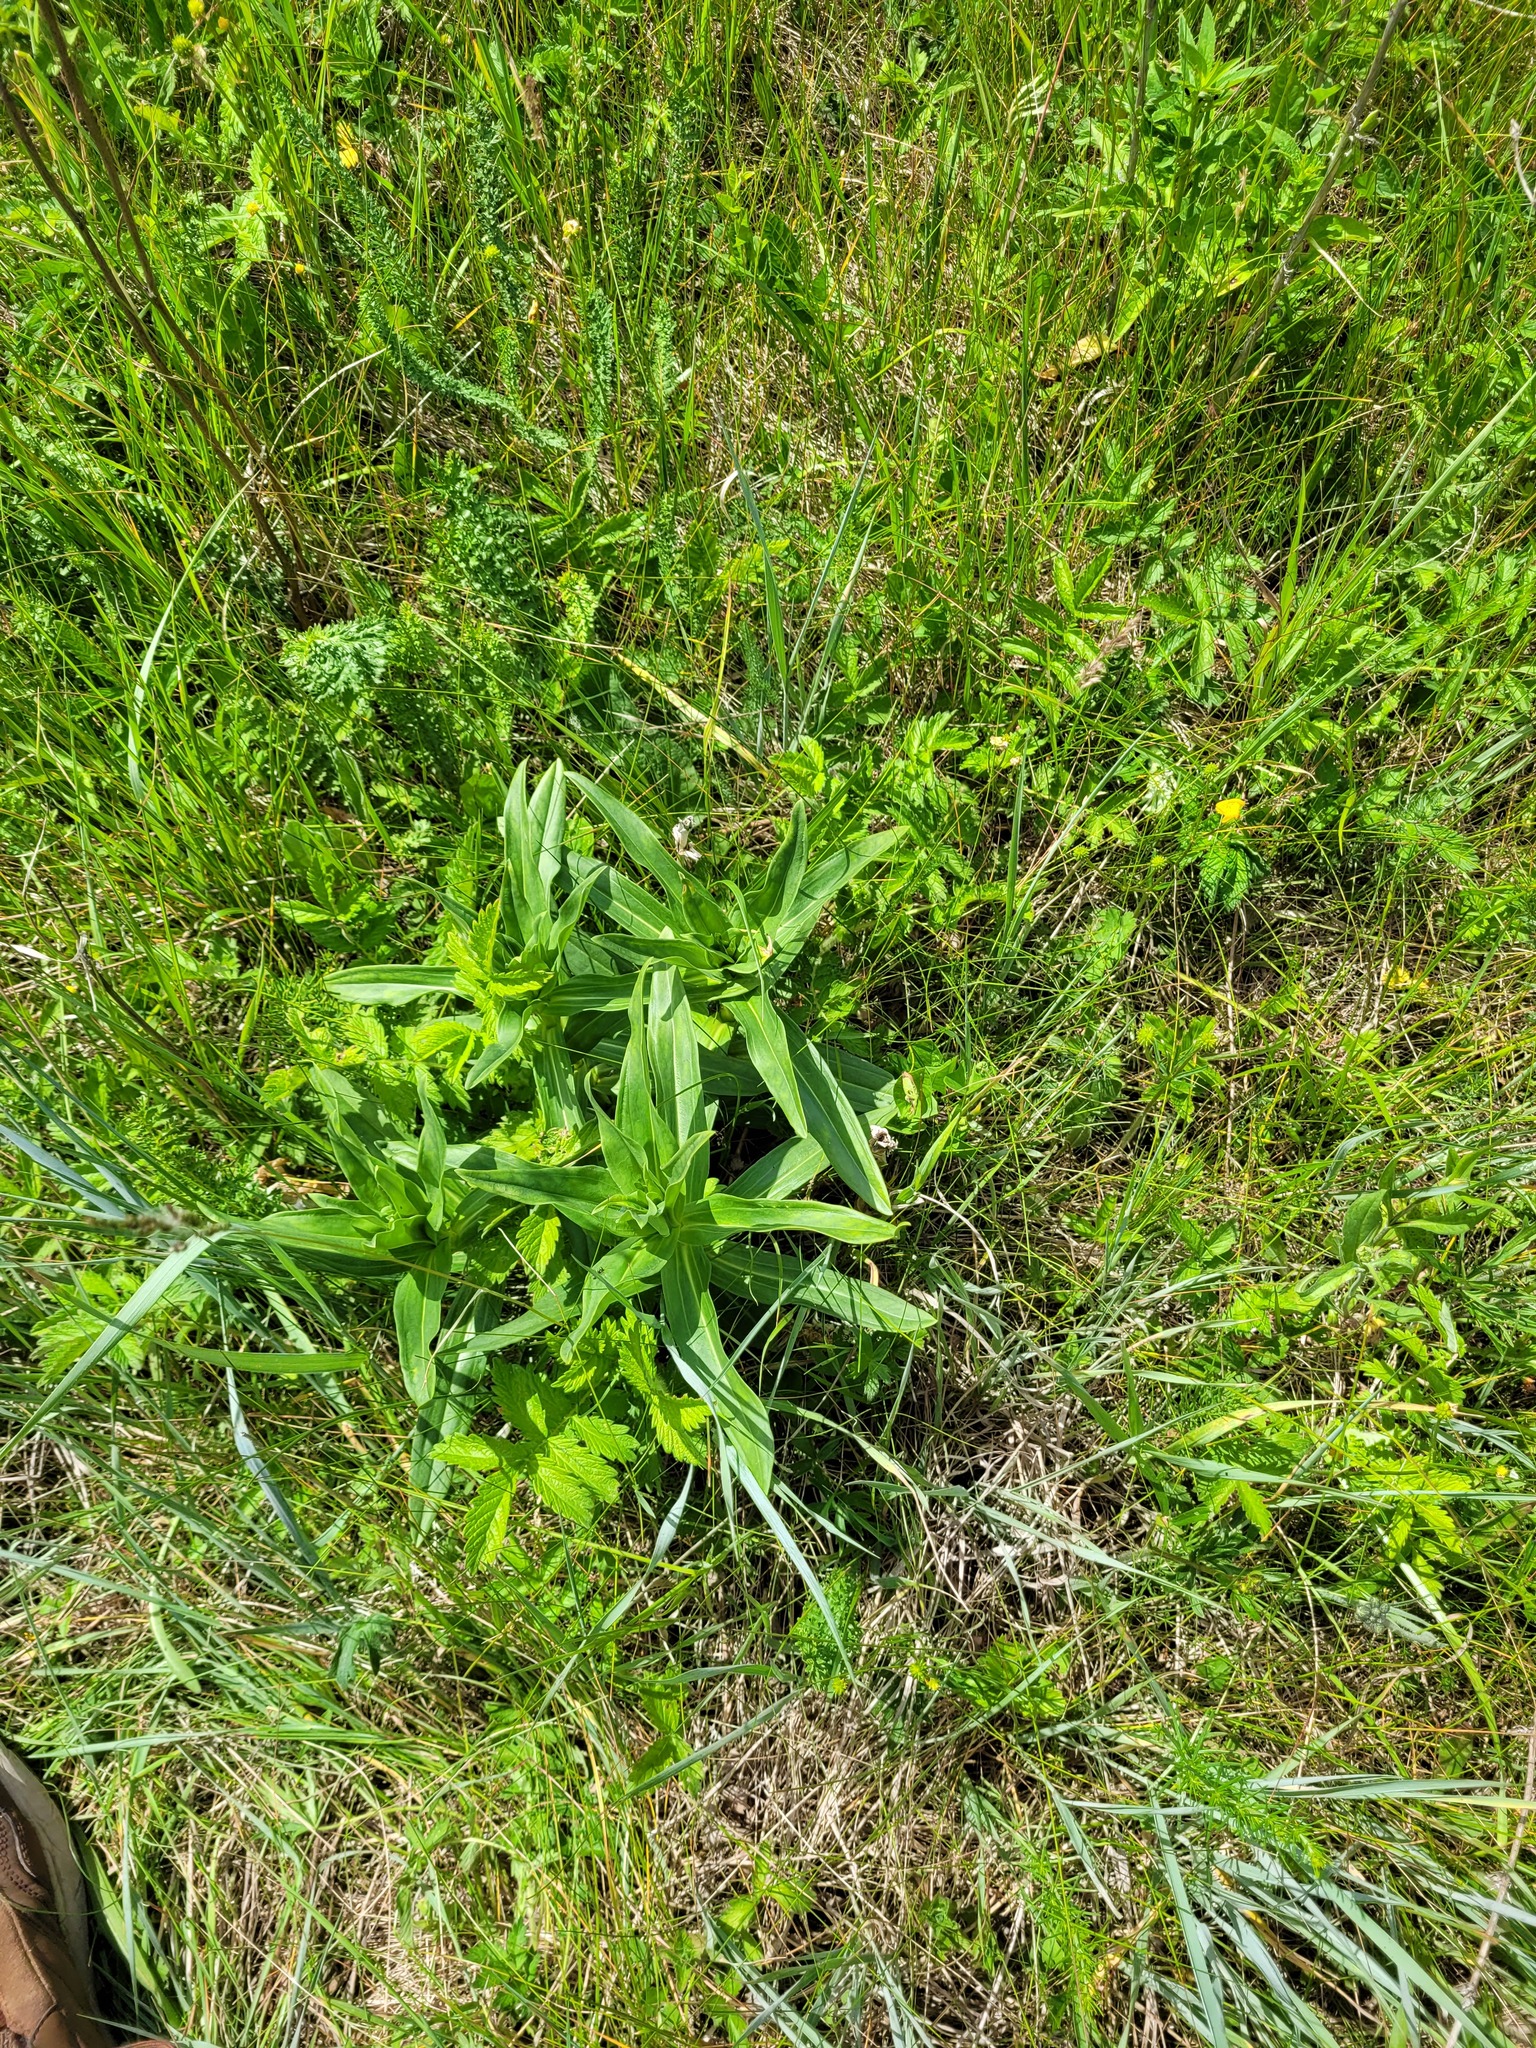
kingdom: Plantae
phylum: Tracheophyta
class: Magnoliopsida
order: Gentianales
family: Gentianaceae
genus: Gentiana
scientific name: Gentiana cruciata
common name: Cross gentian
